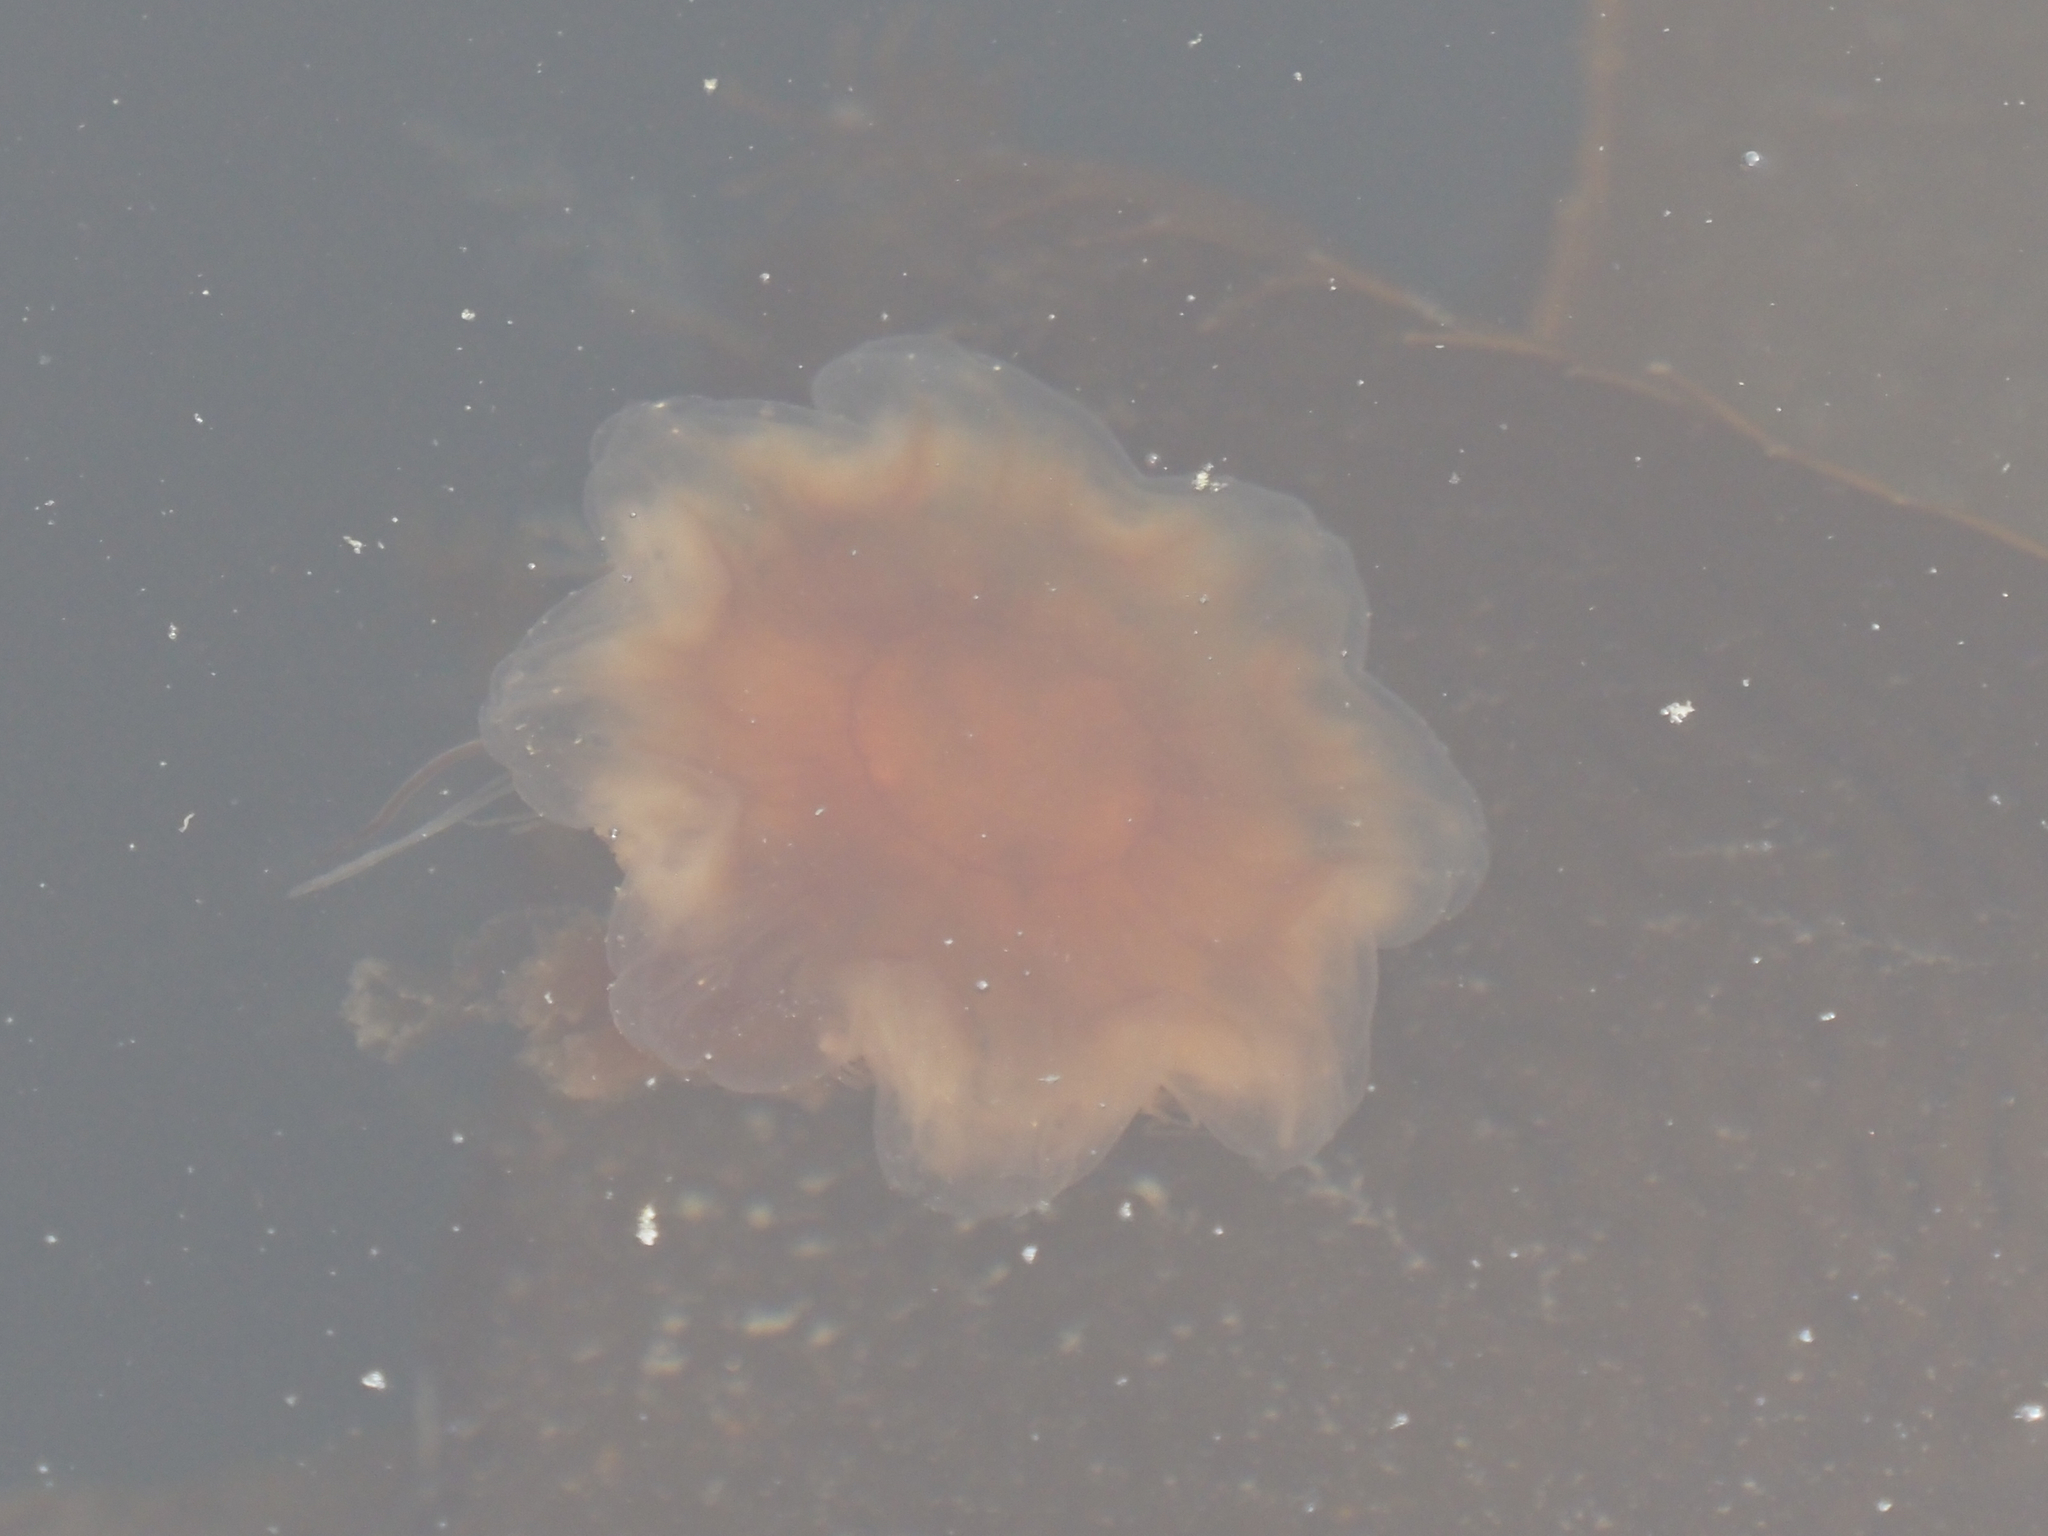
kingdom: Animalia
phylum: Cnidaria
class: Scyphozoa
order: Semaeostomeae
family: Cyaneidae
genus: Cyanea
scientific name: Cyanea ferruginea
